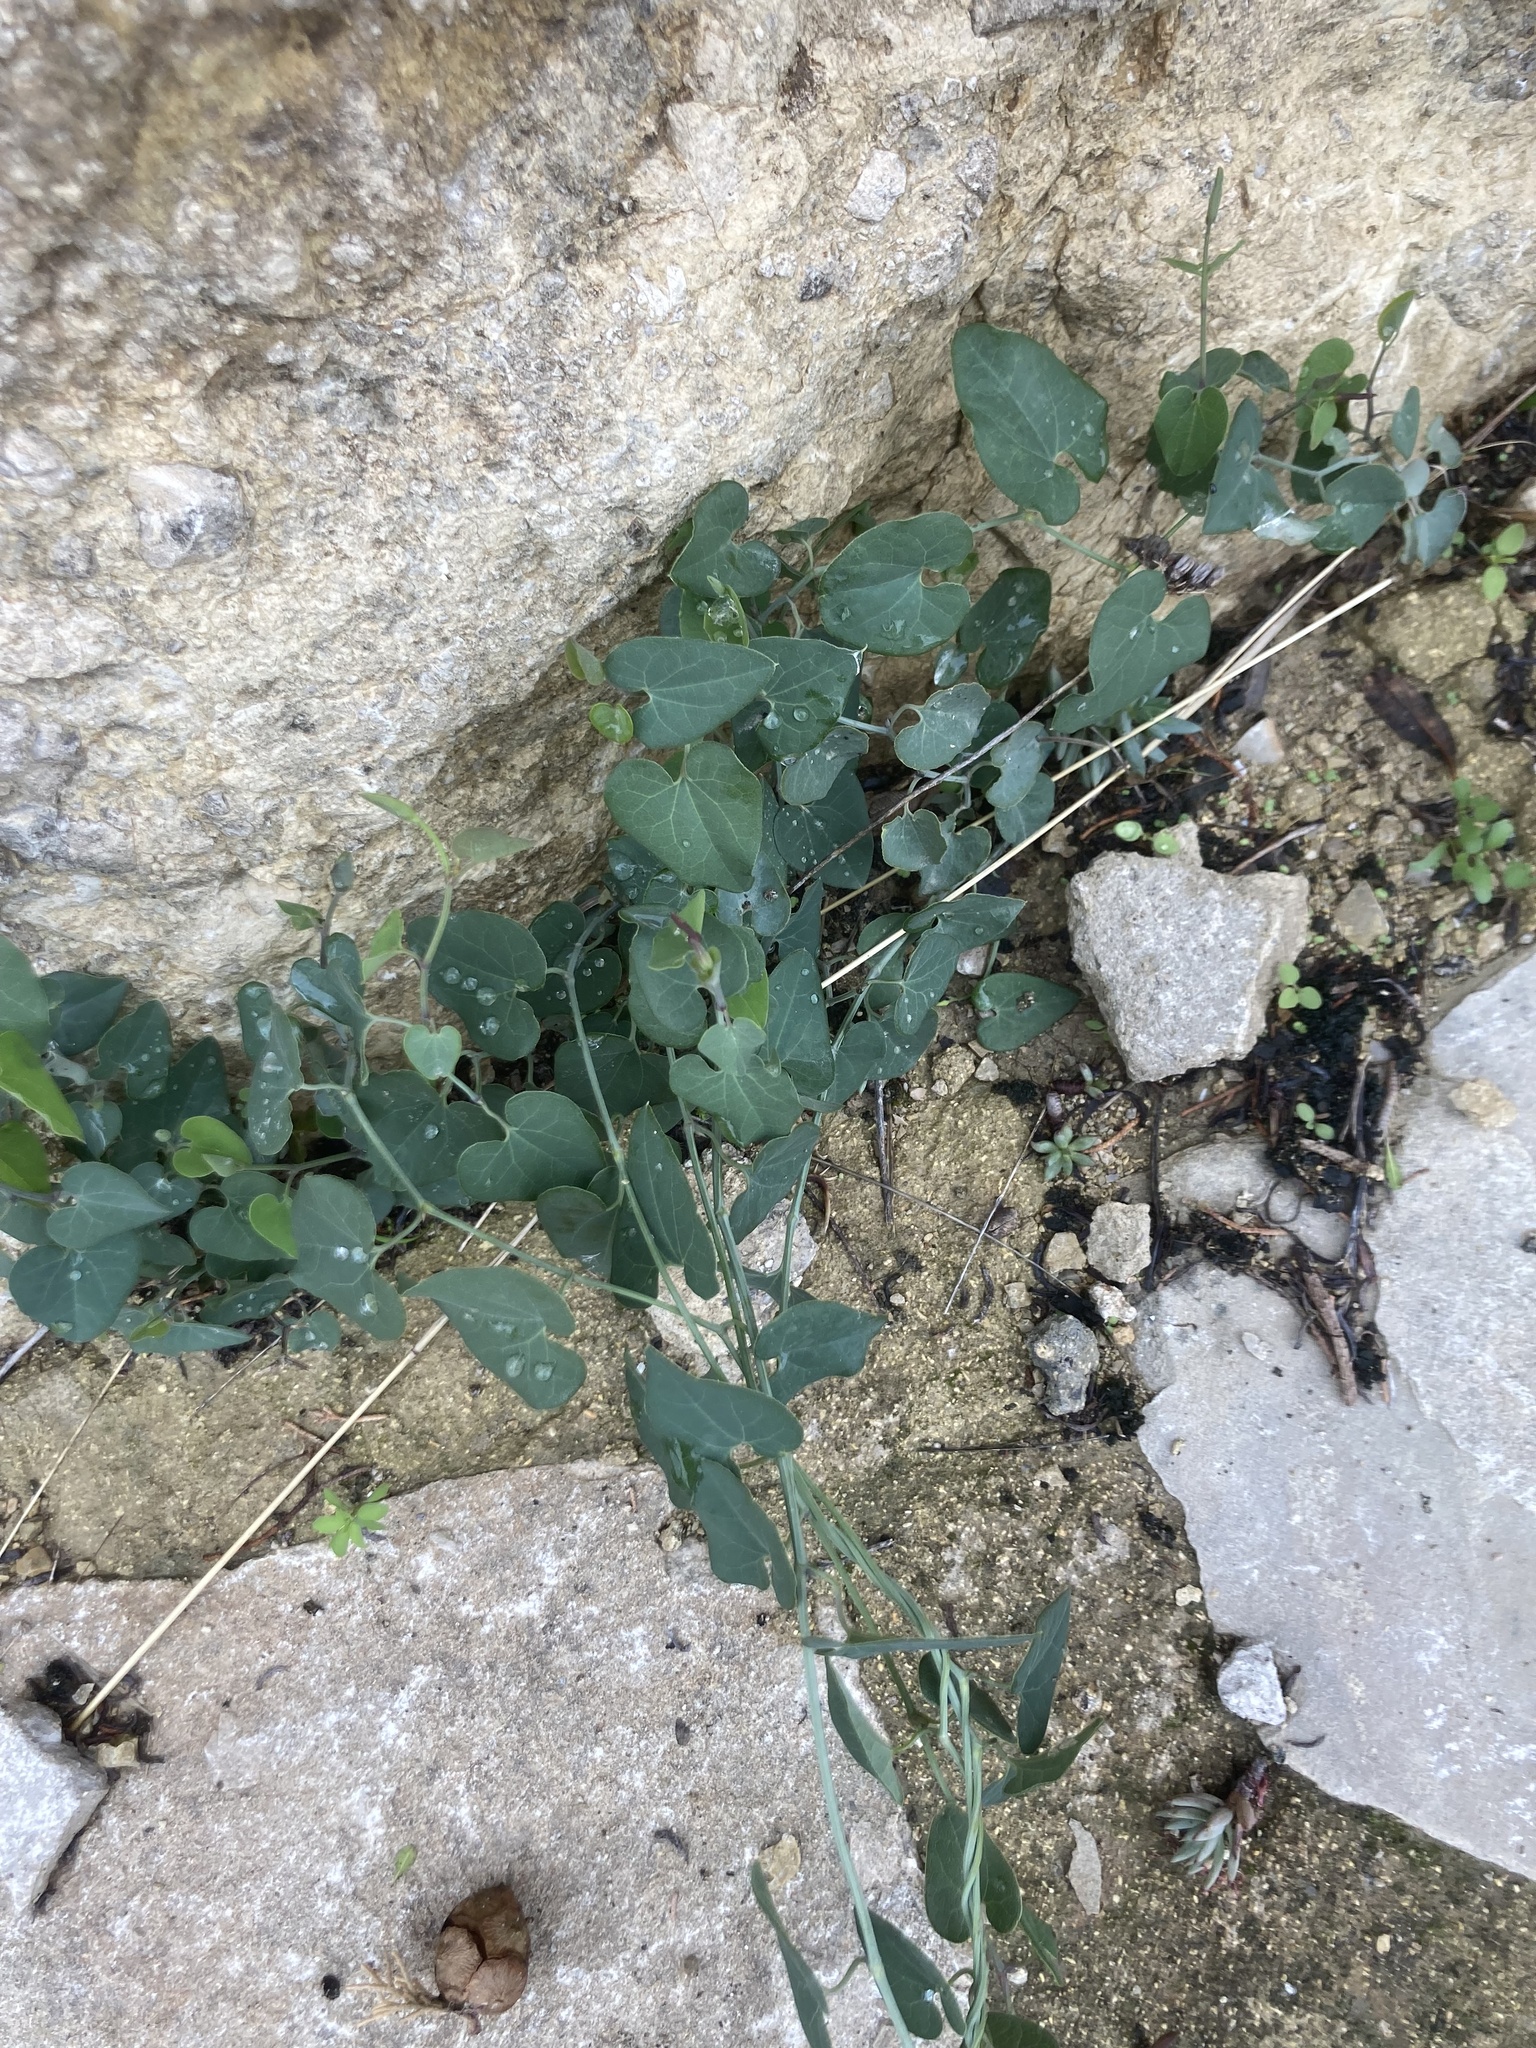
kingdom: Plantae
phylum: Tracheophyta
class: Magnoliopsida
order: Piperales
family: Aristolochiaceae
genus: Aristolochia
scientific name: Aristolochia baetica
